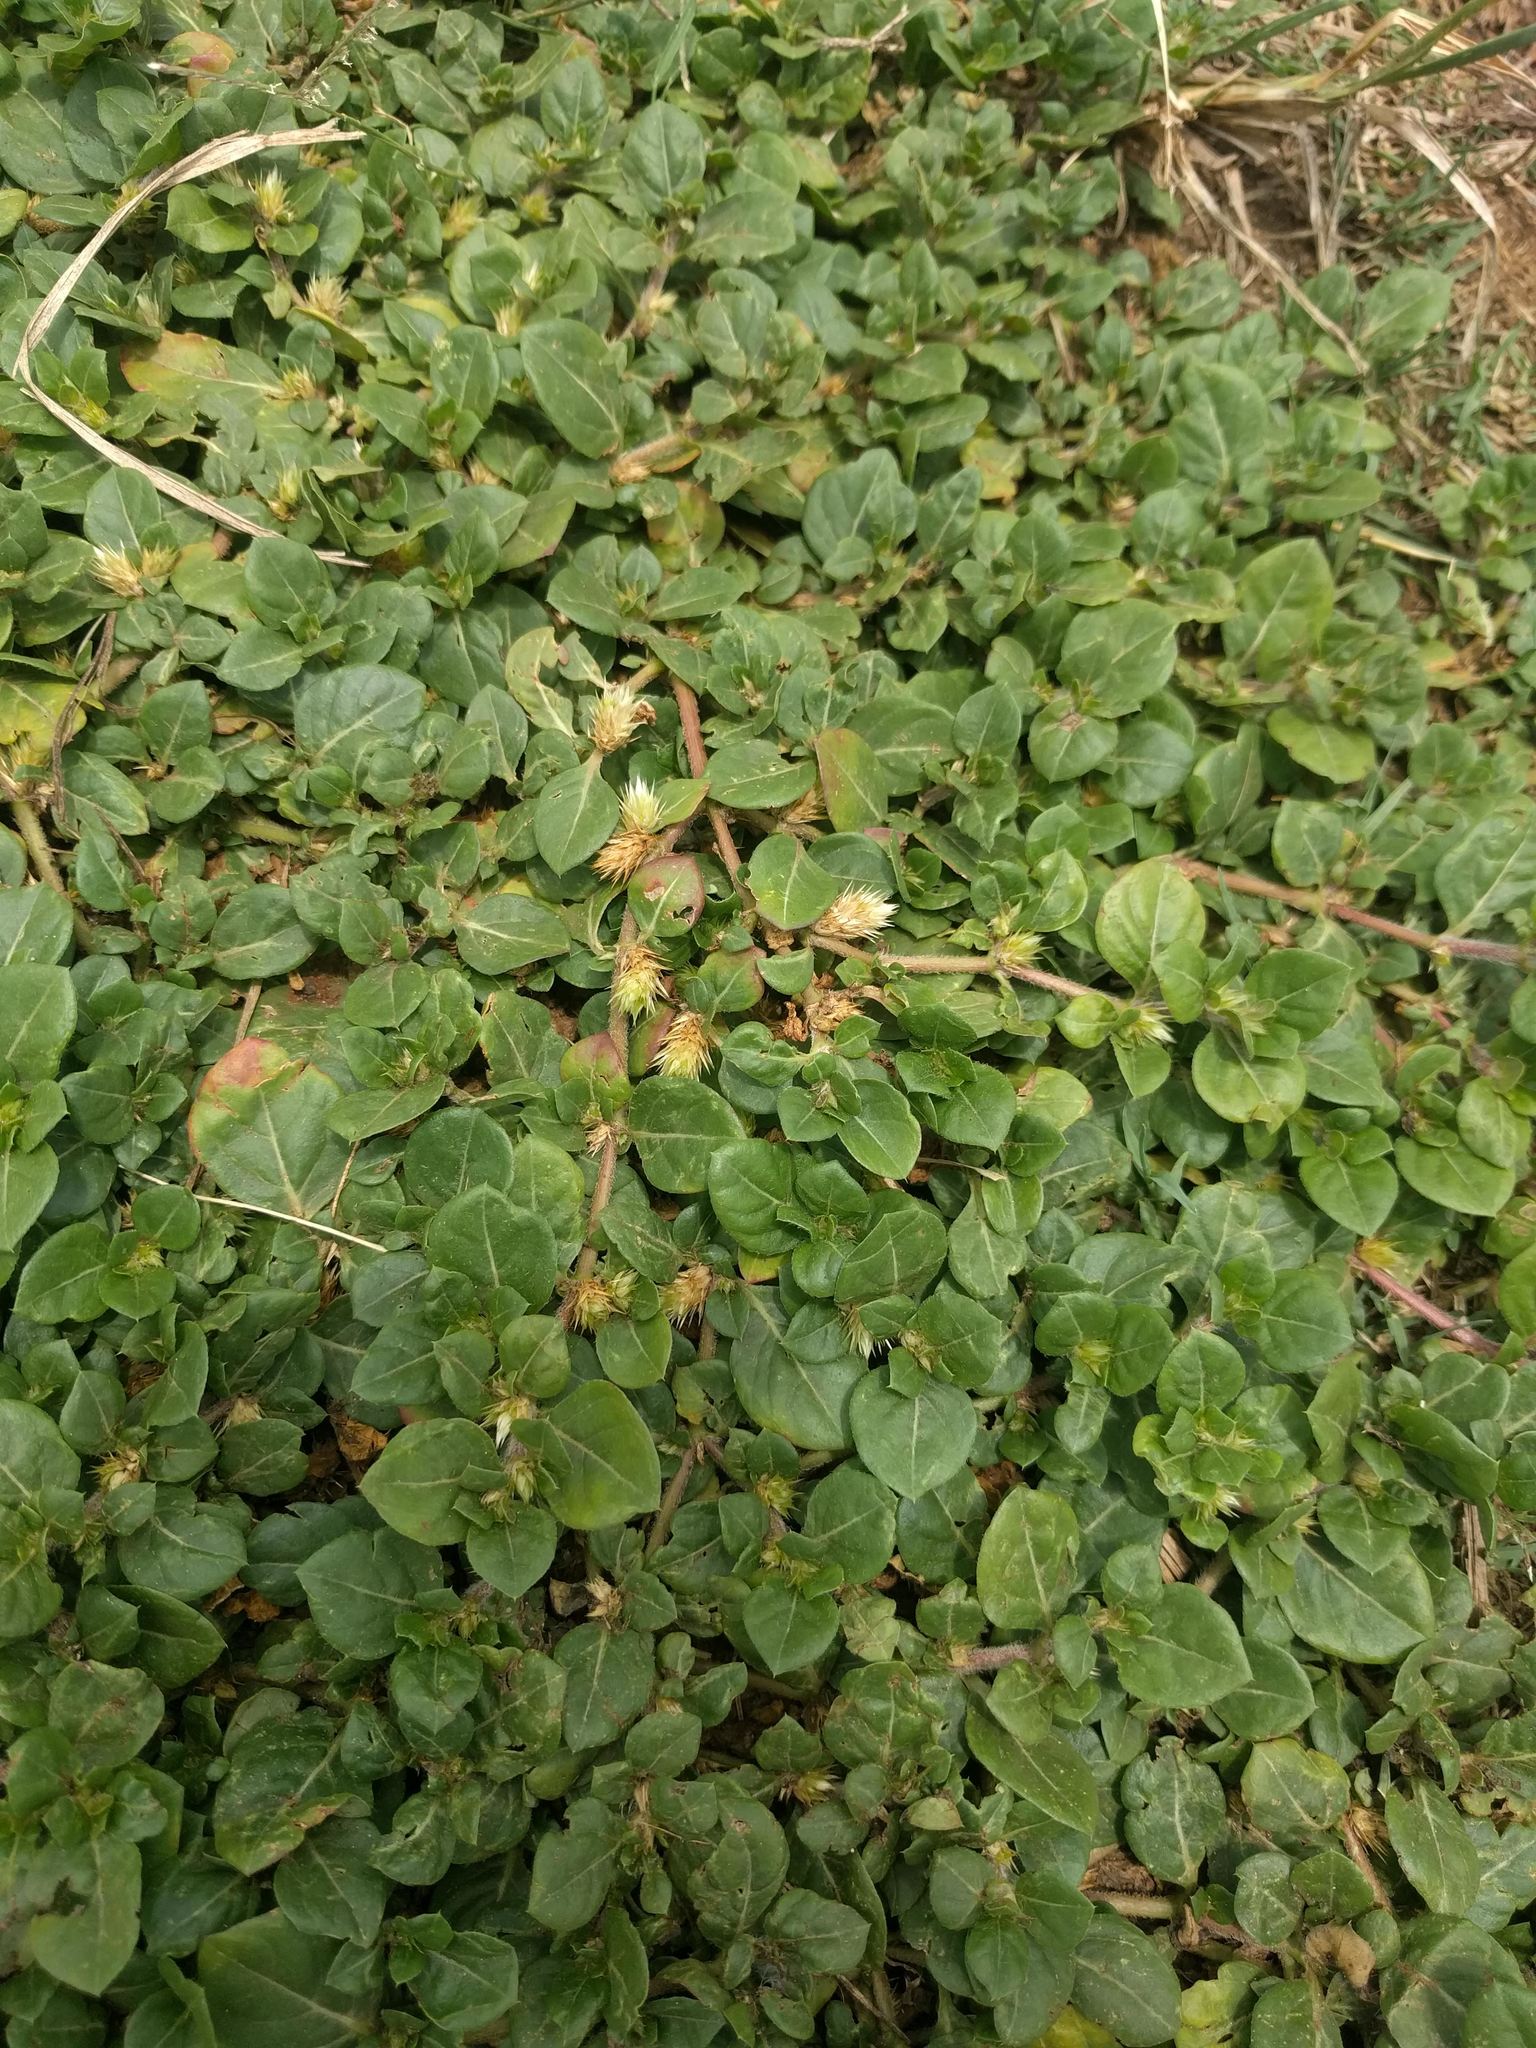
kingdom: Plantae
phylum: Tracheophyta
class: Magnoliopsida
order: Caryophyllales
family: Amaranthaceae
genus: Alternanthera
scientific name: Alternanthera pungens
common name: Khakiweed
